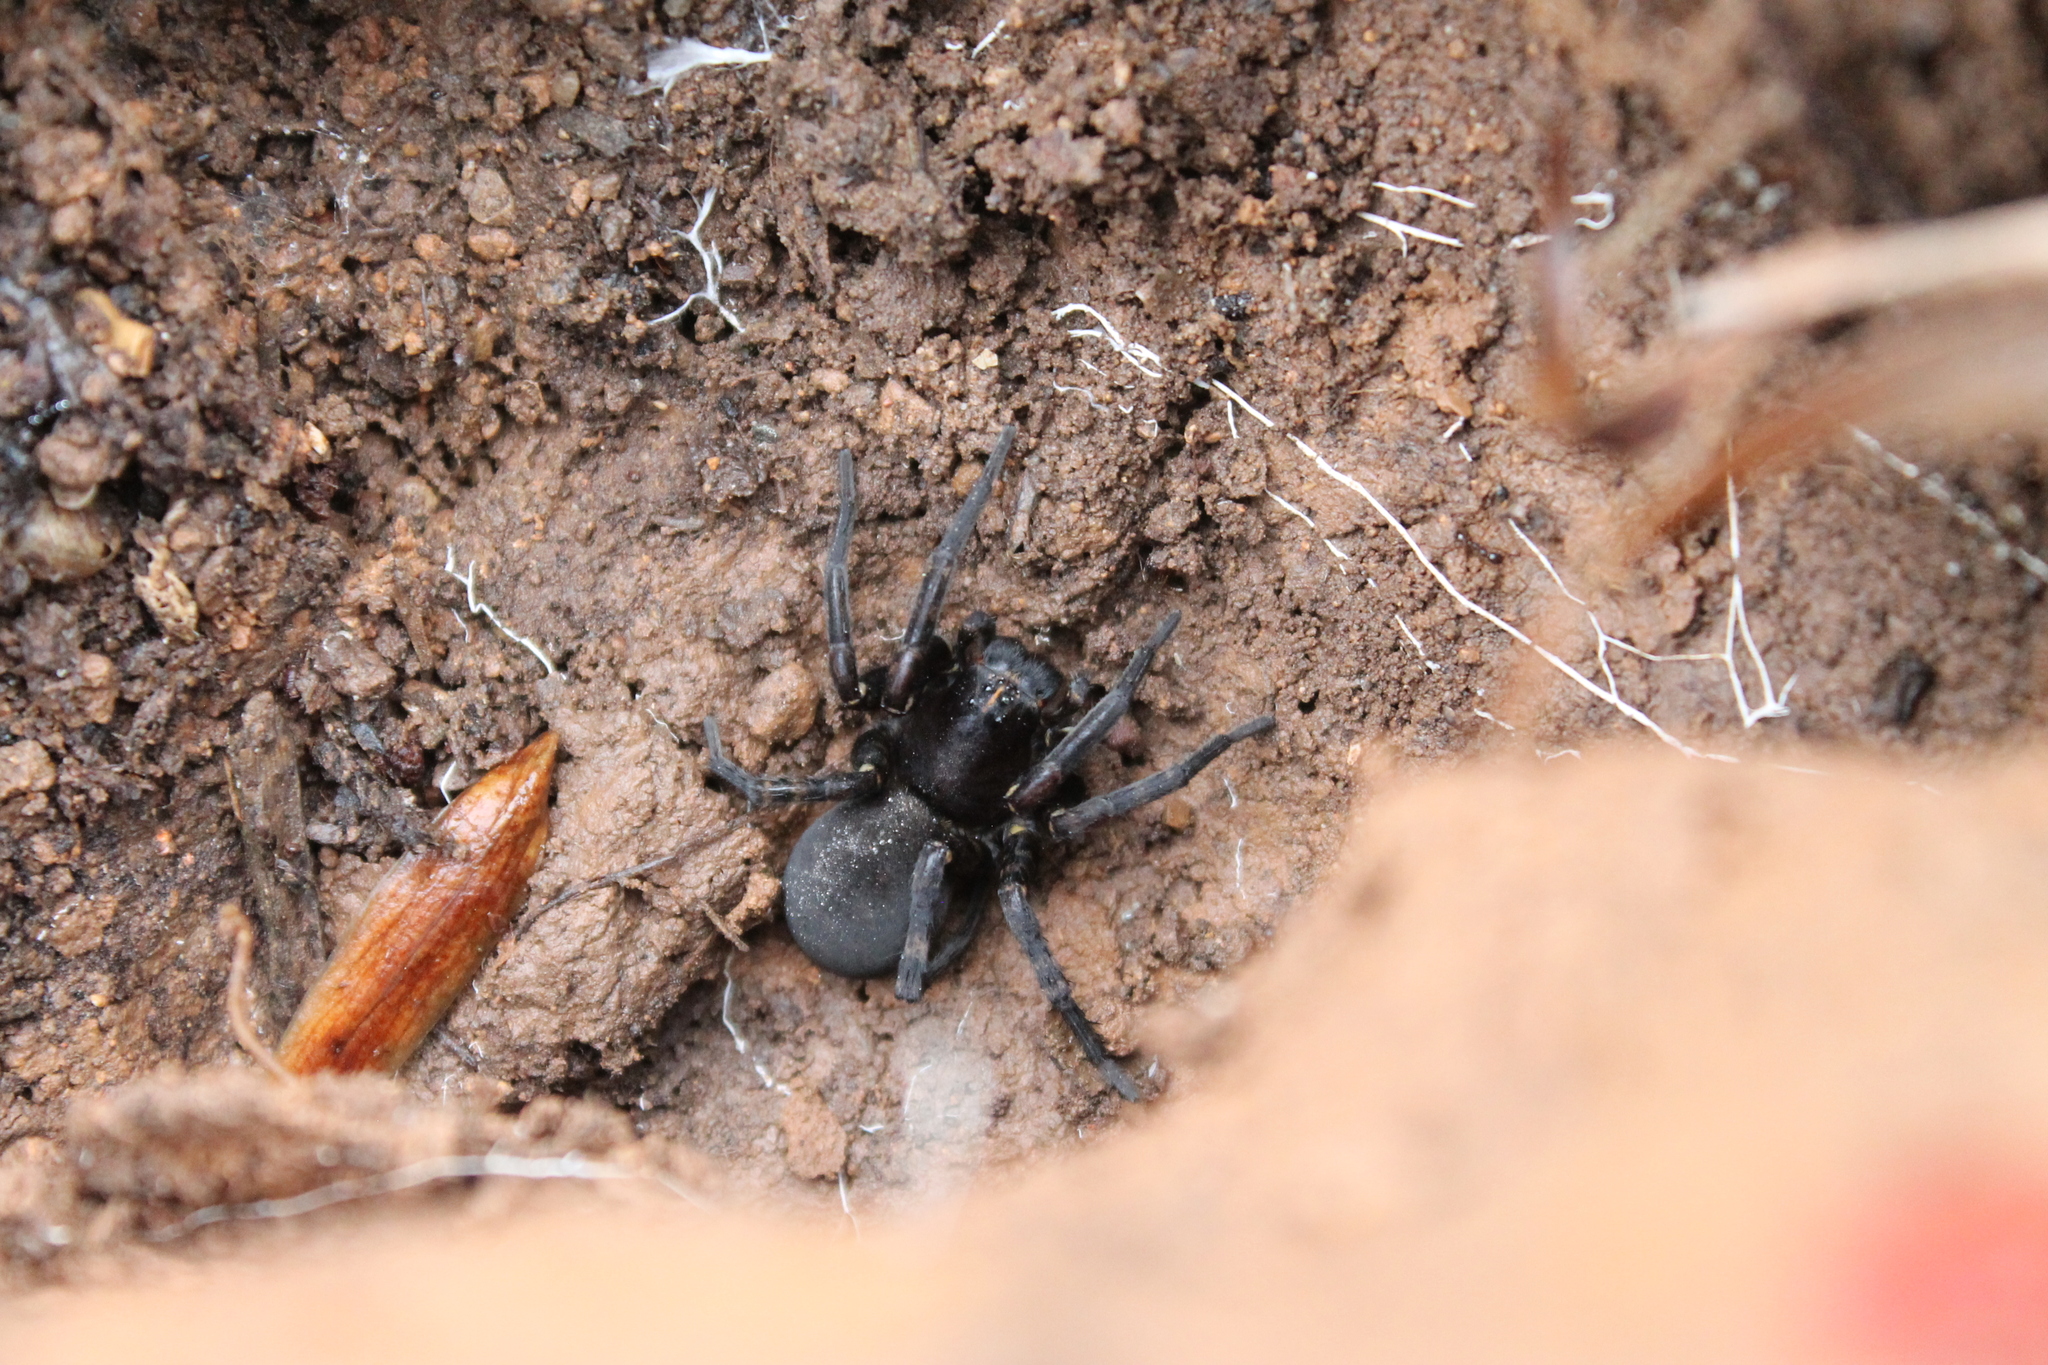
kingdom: Animalia
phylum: Arthropoda
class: Arachnida
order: Araneae
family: Lycosidae
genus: Tigrosa
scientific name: Tigrosa aspersa
